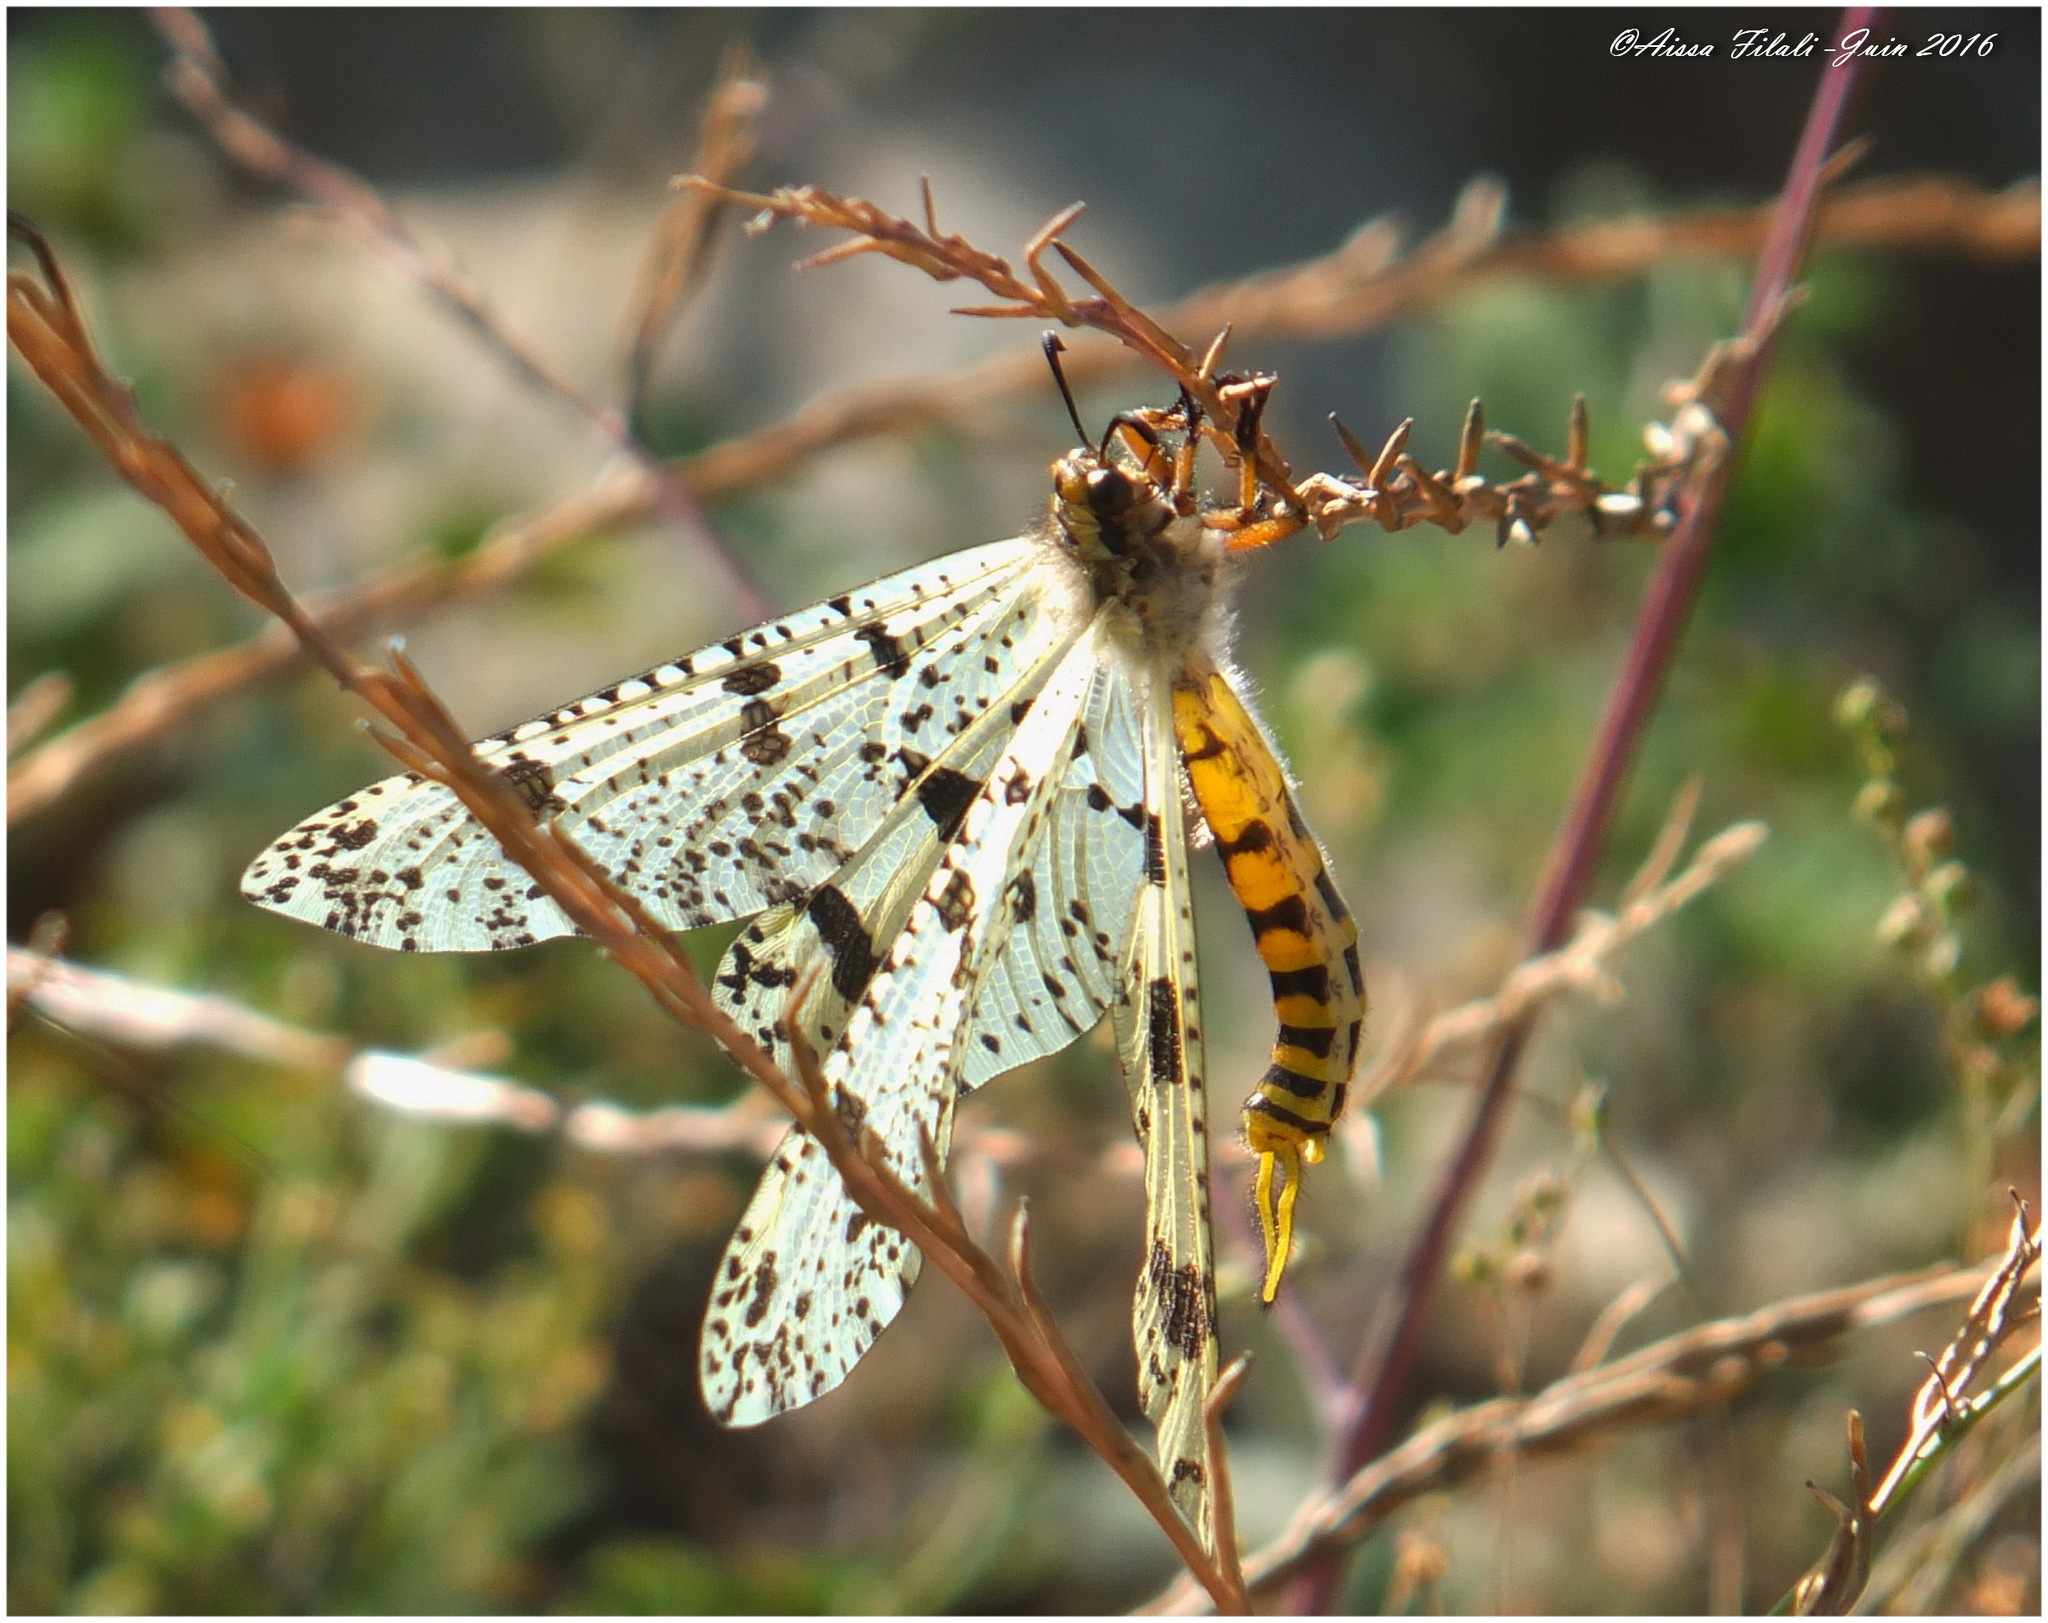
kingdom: Animalia
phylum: Arthropoda
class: Insecta
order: Neuroptera
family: Myrmeleontidae
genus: Palpares
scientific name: Palpares libelluloides
